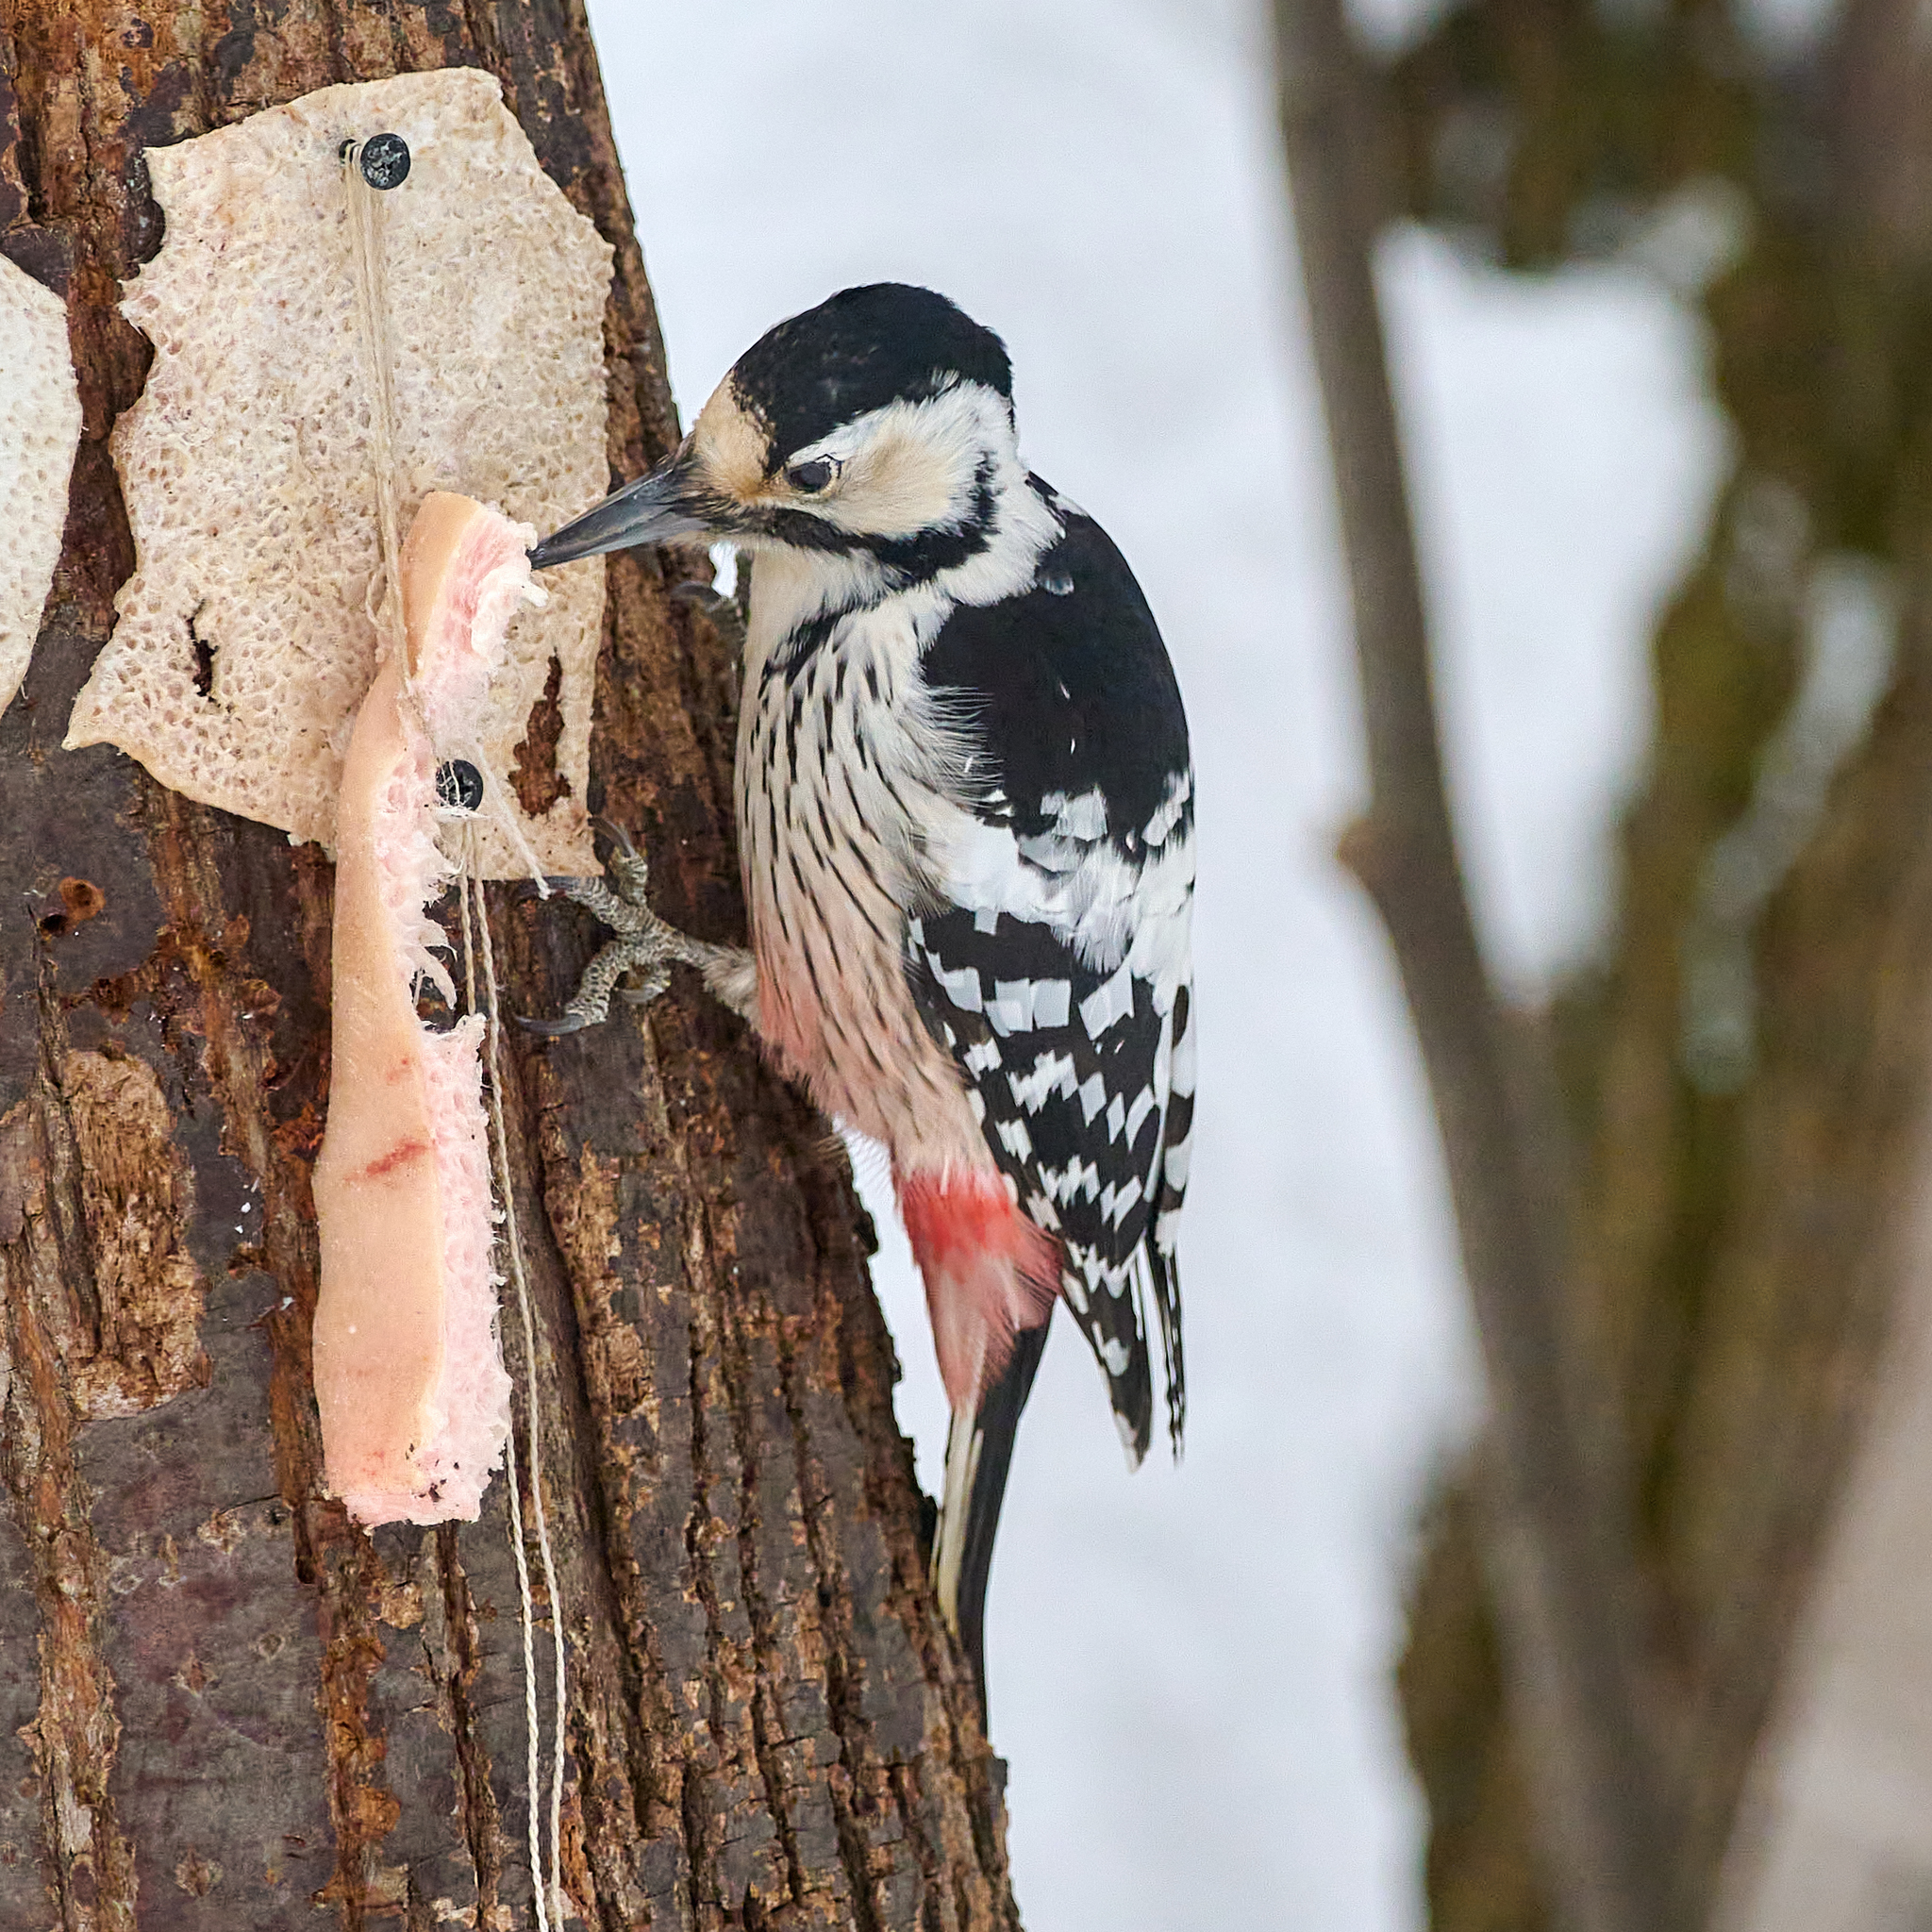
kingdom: Animalia
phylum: Chordata
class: Aves
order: Piciformes
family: Picidae
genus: Dendrocopos
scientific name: Dendrocopos leucotos
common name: White-backed woodpecker
